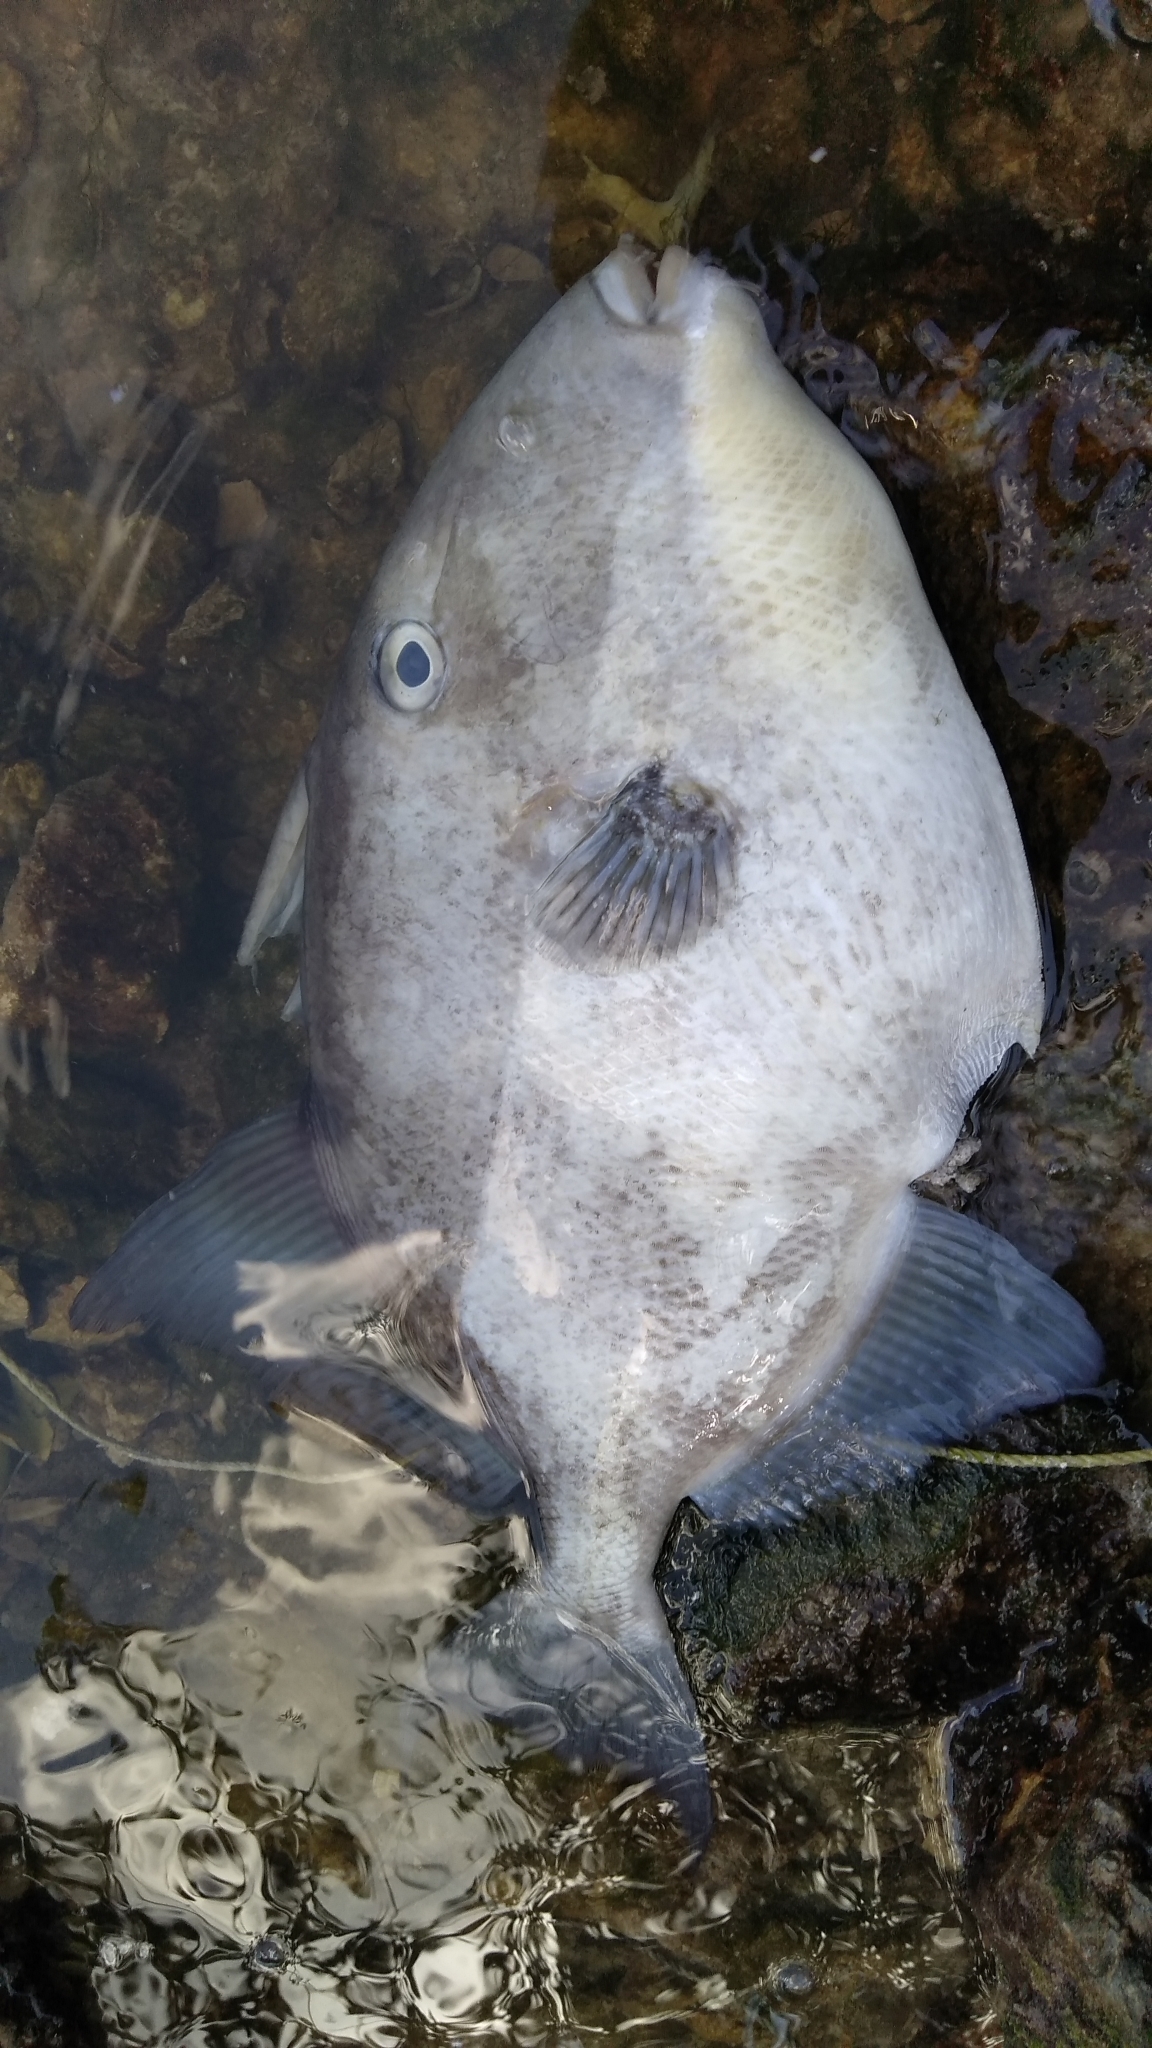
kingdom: Animalia
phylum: Chordata
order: Tetraodontiformes
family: Balistidae
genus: Balistes
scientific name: Balistes capriscus
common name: Grey triggerfish
